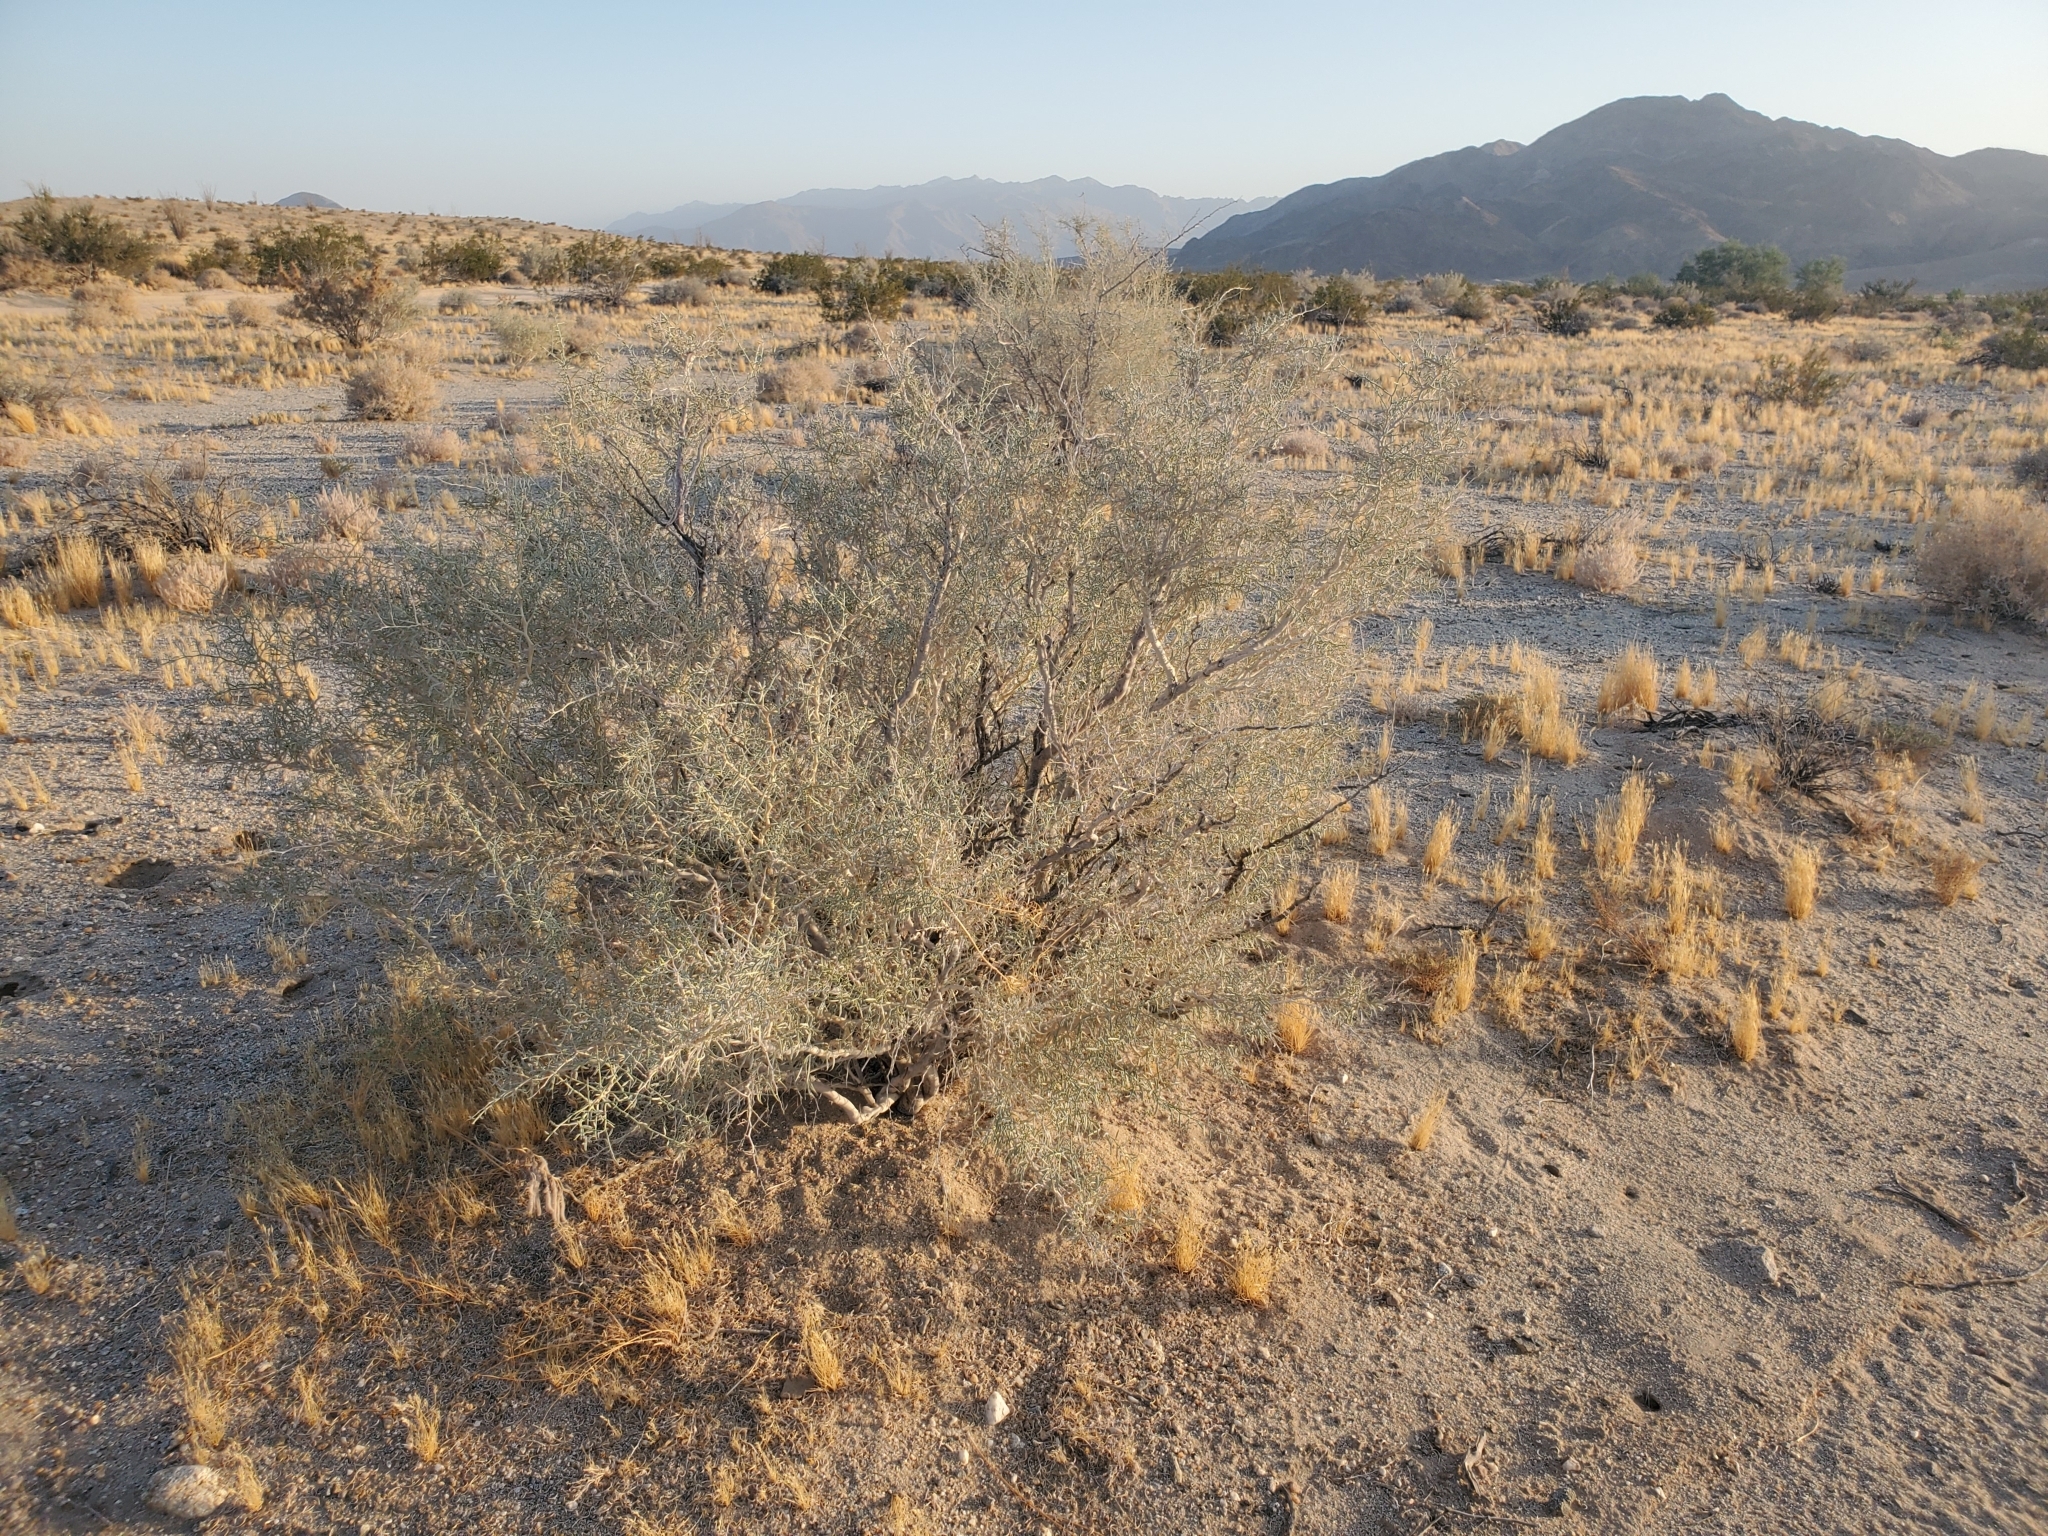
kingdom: Plantae
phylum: Tracheophyta
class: Magnoliopsida
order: Fabales
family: Fabaceae
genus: Psorothamnus
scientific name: Psorothamnus schottii
